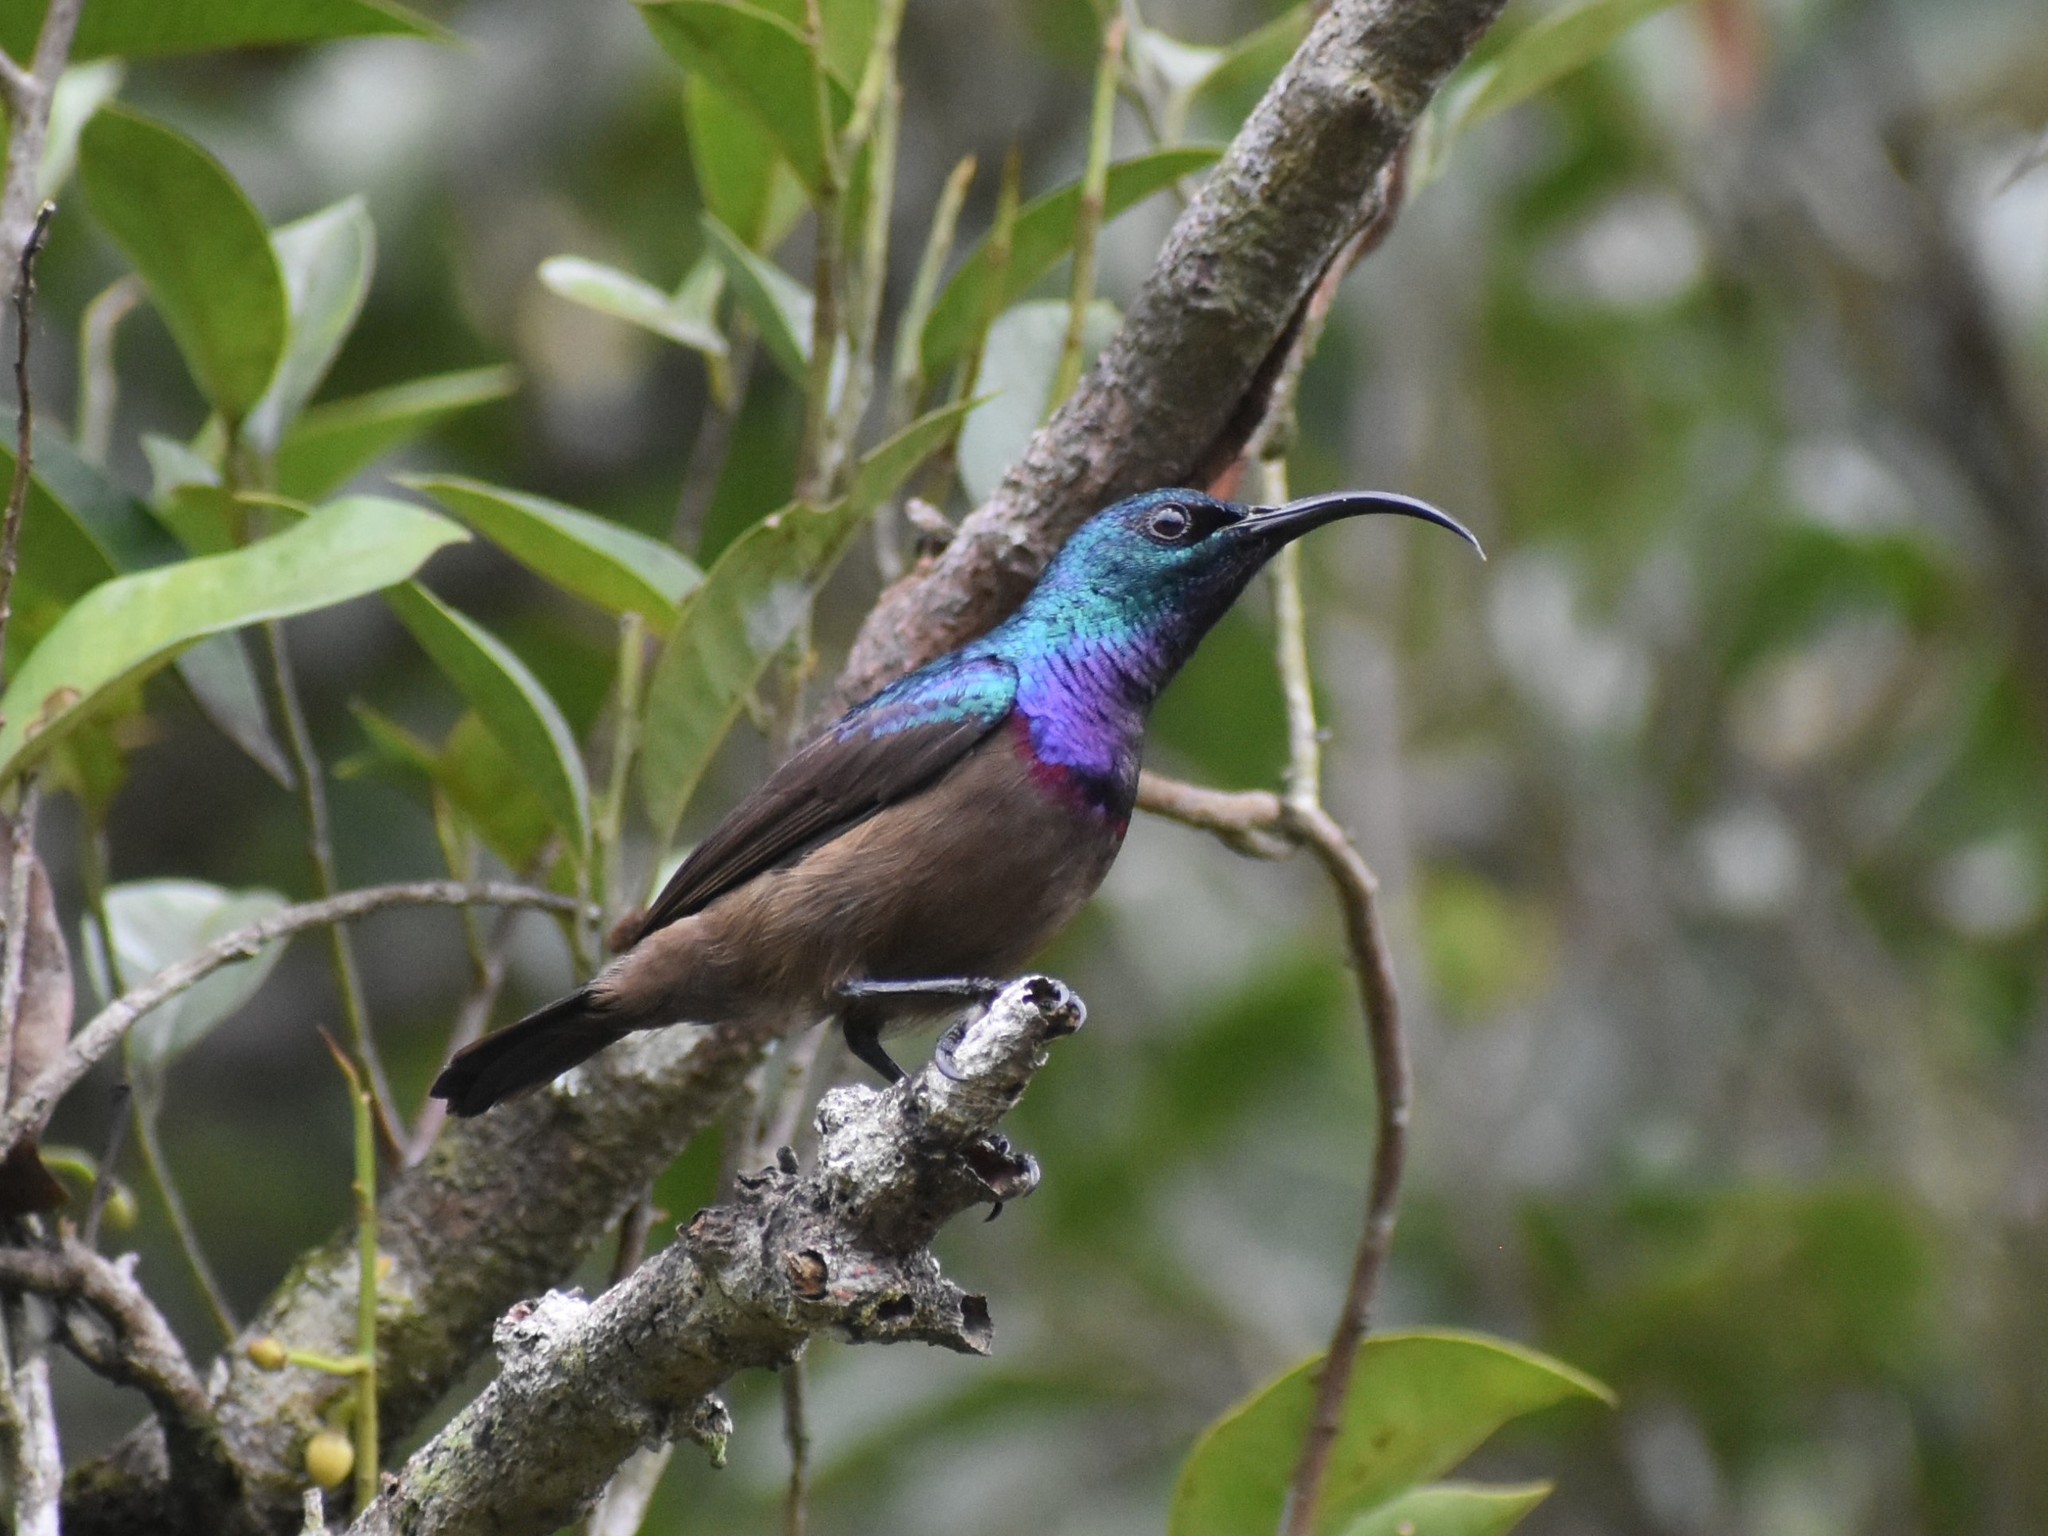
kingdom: Animalia
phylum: Chordata
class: Aves
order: Passeriformes
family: Nectariniidae
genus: Cinnyris
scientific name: Cinnyris lotenius
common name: Loten's sunbird
